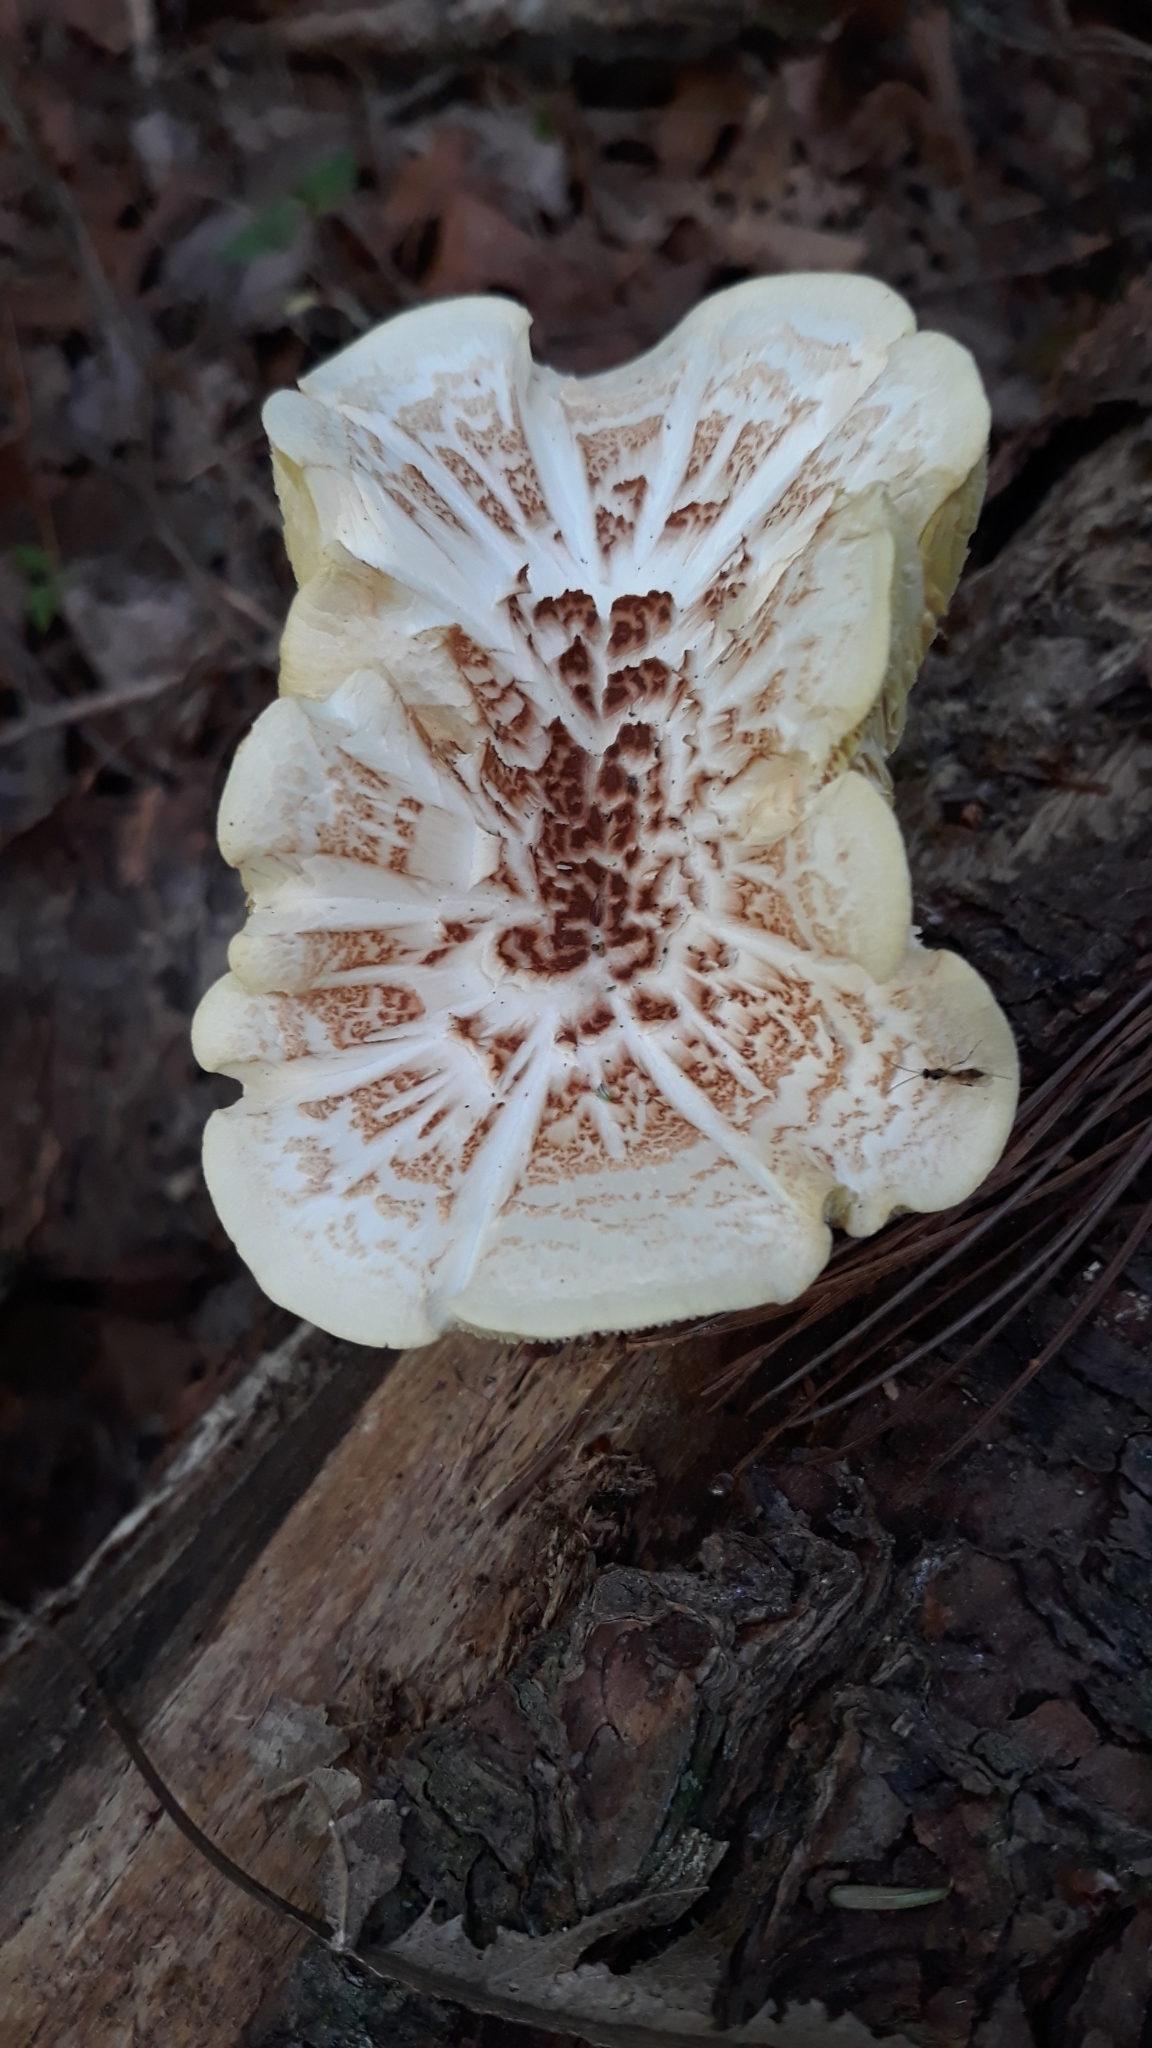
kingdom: Fungi
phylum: Basidiomycota
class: Agaricomycetes
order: Gloeophyllales
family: Gloeophyllaceae
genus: Neolentinus
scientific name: Neolentinus lepideus
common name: Scaly sawgill
